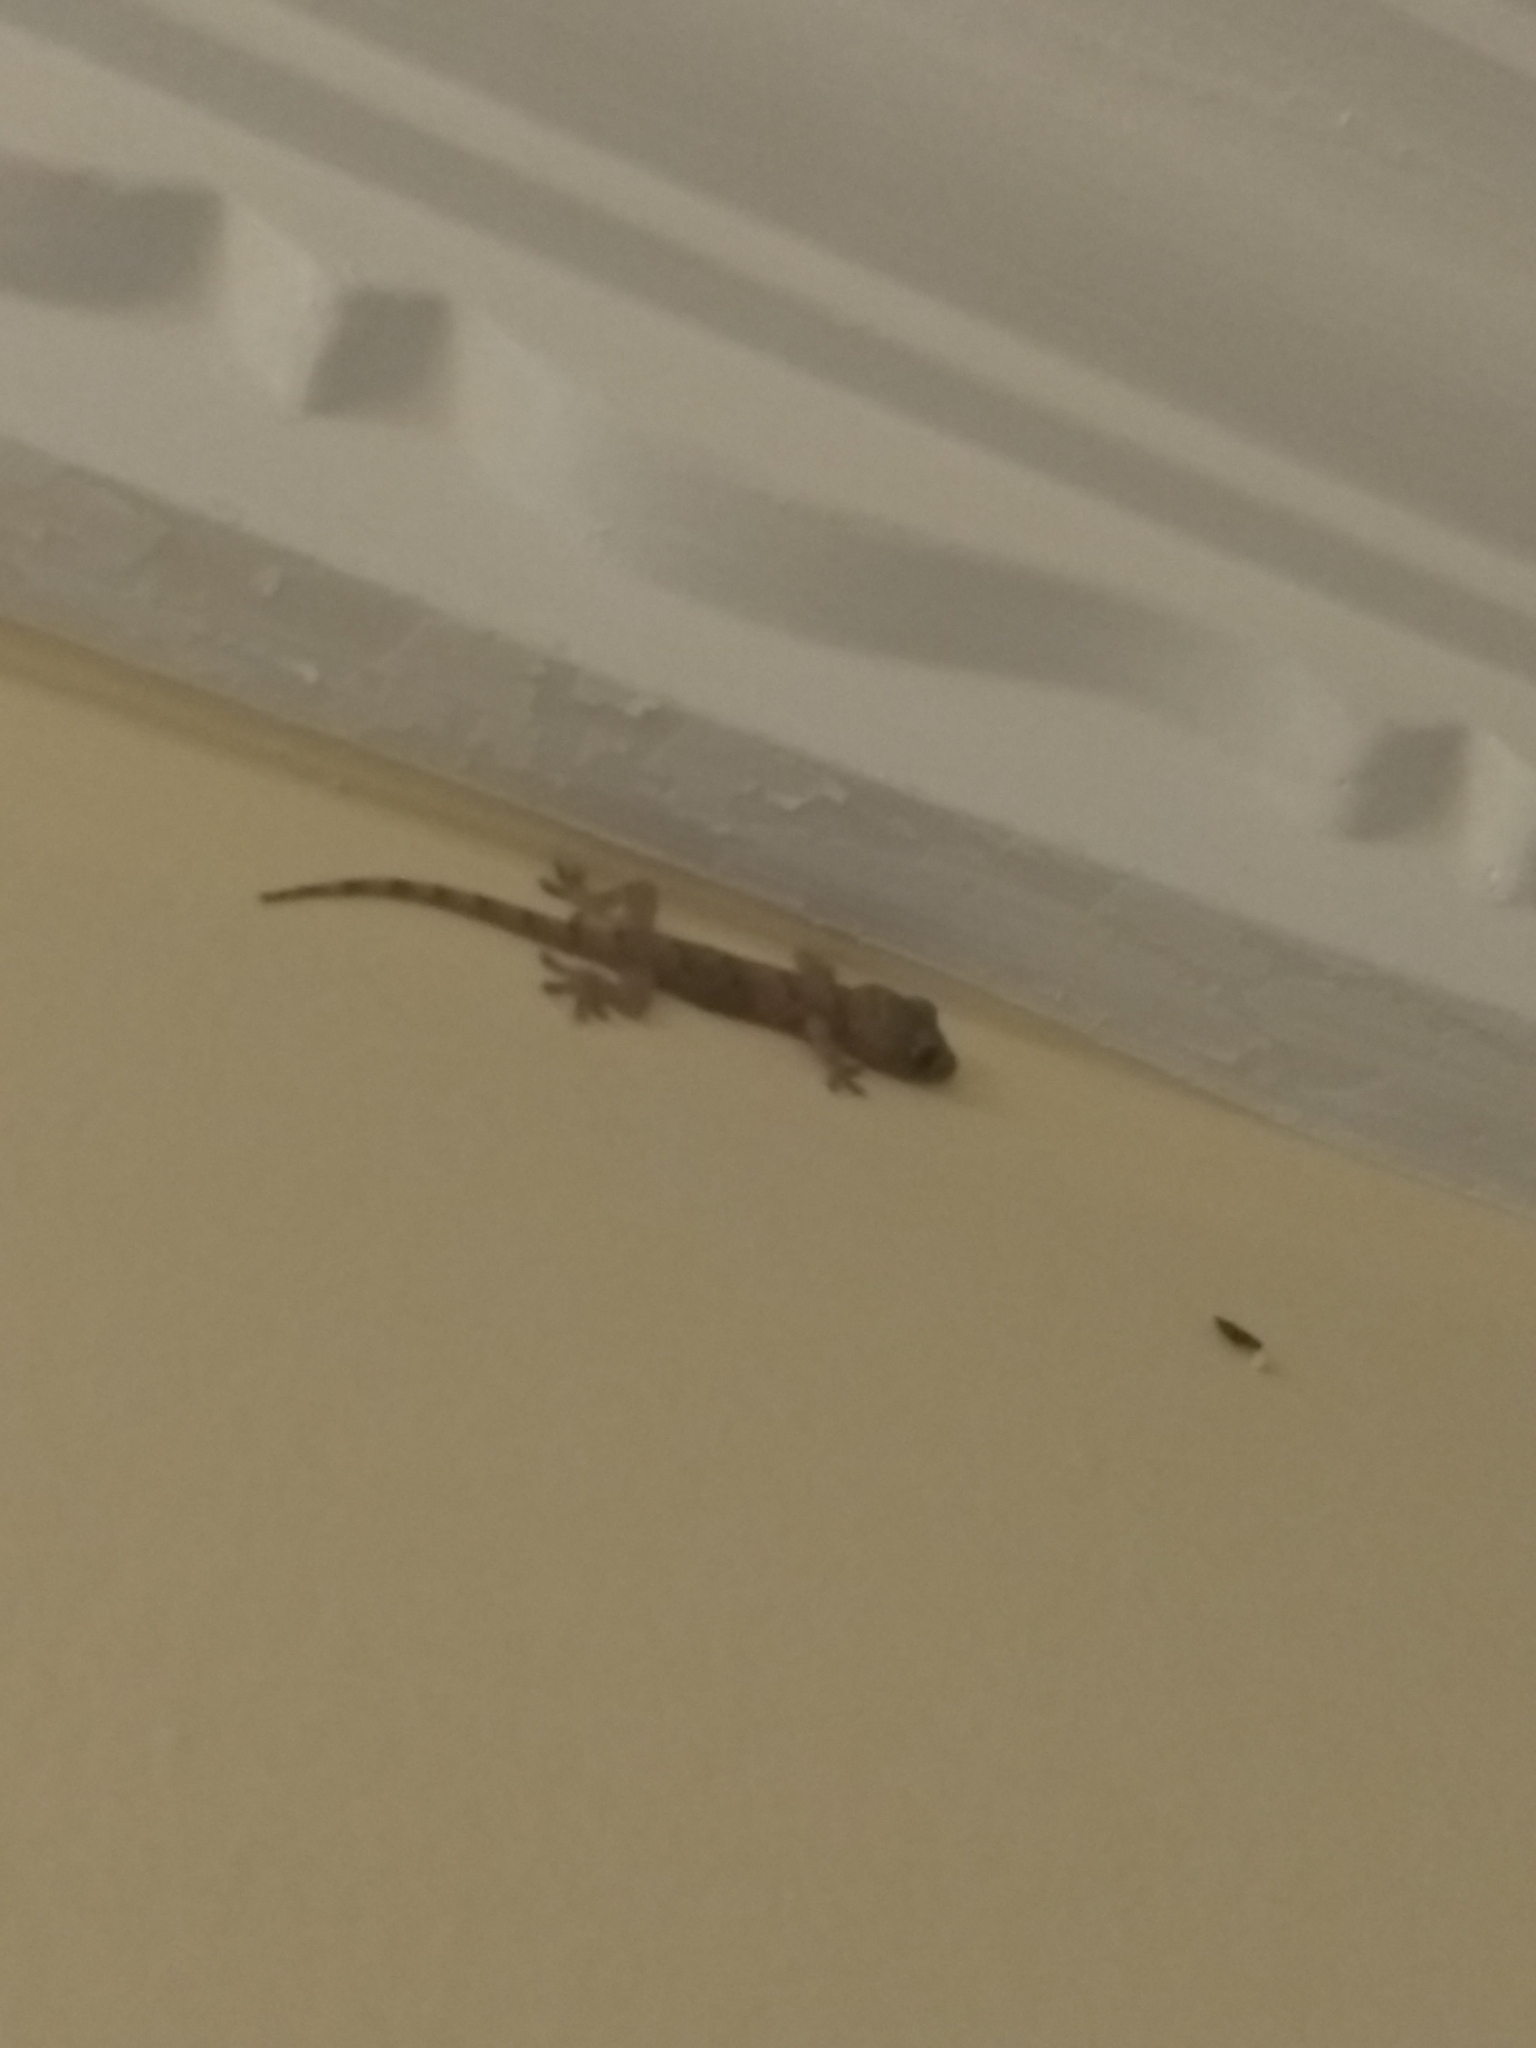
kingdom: Animalia
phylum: Chordata
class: Squamata
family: Gekkonidae
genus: Hemidactylus
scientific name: Hemidactylus mabouia
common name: House gecko
